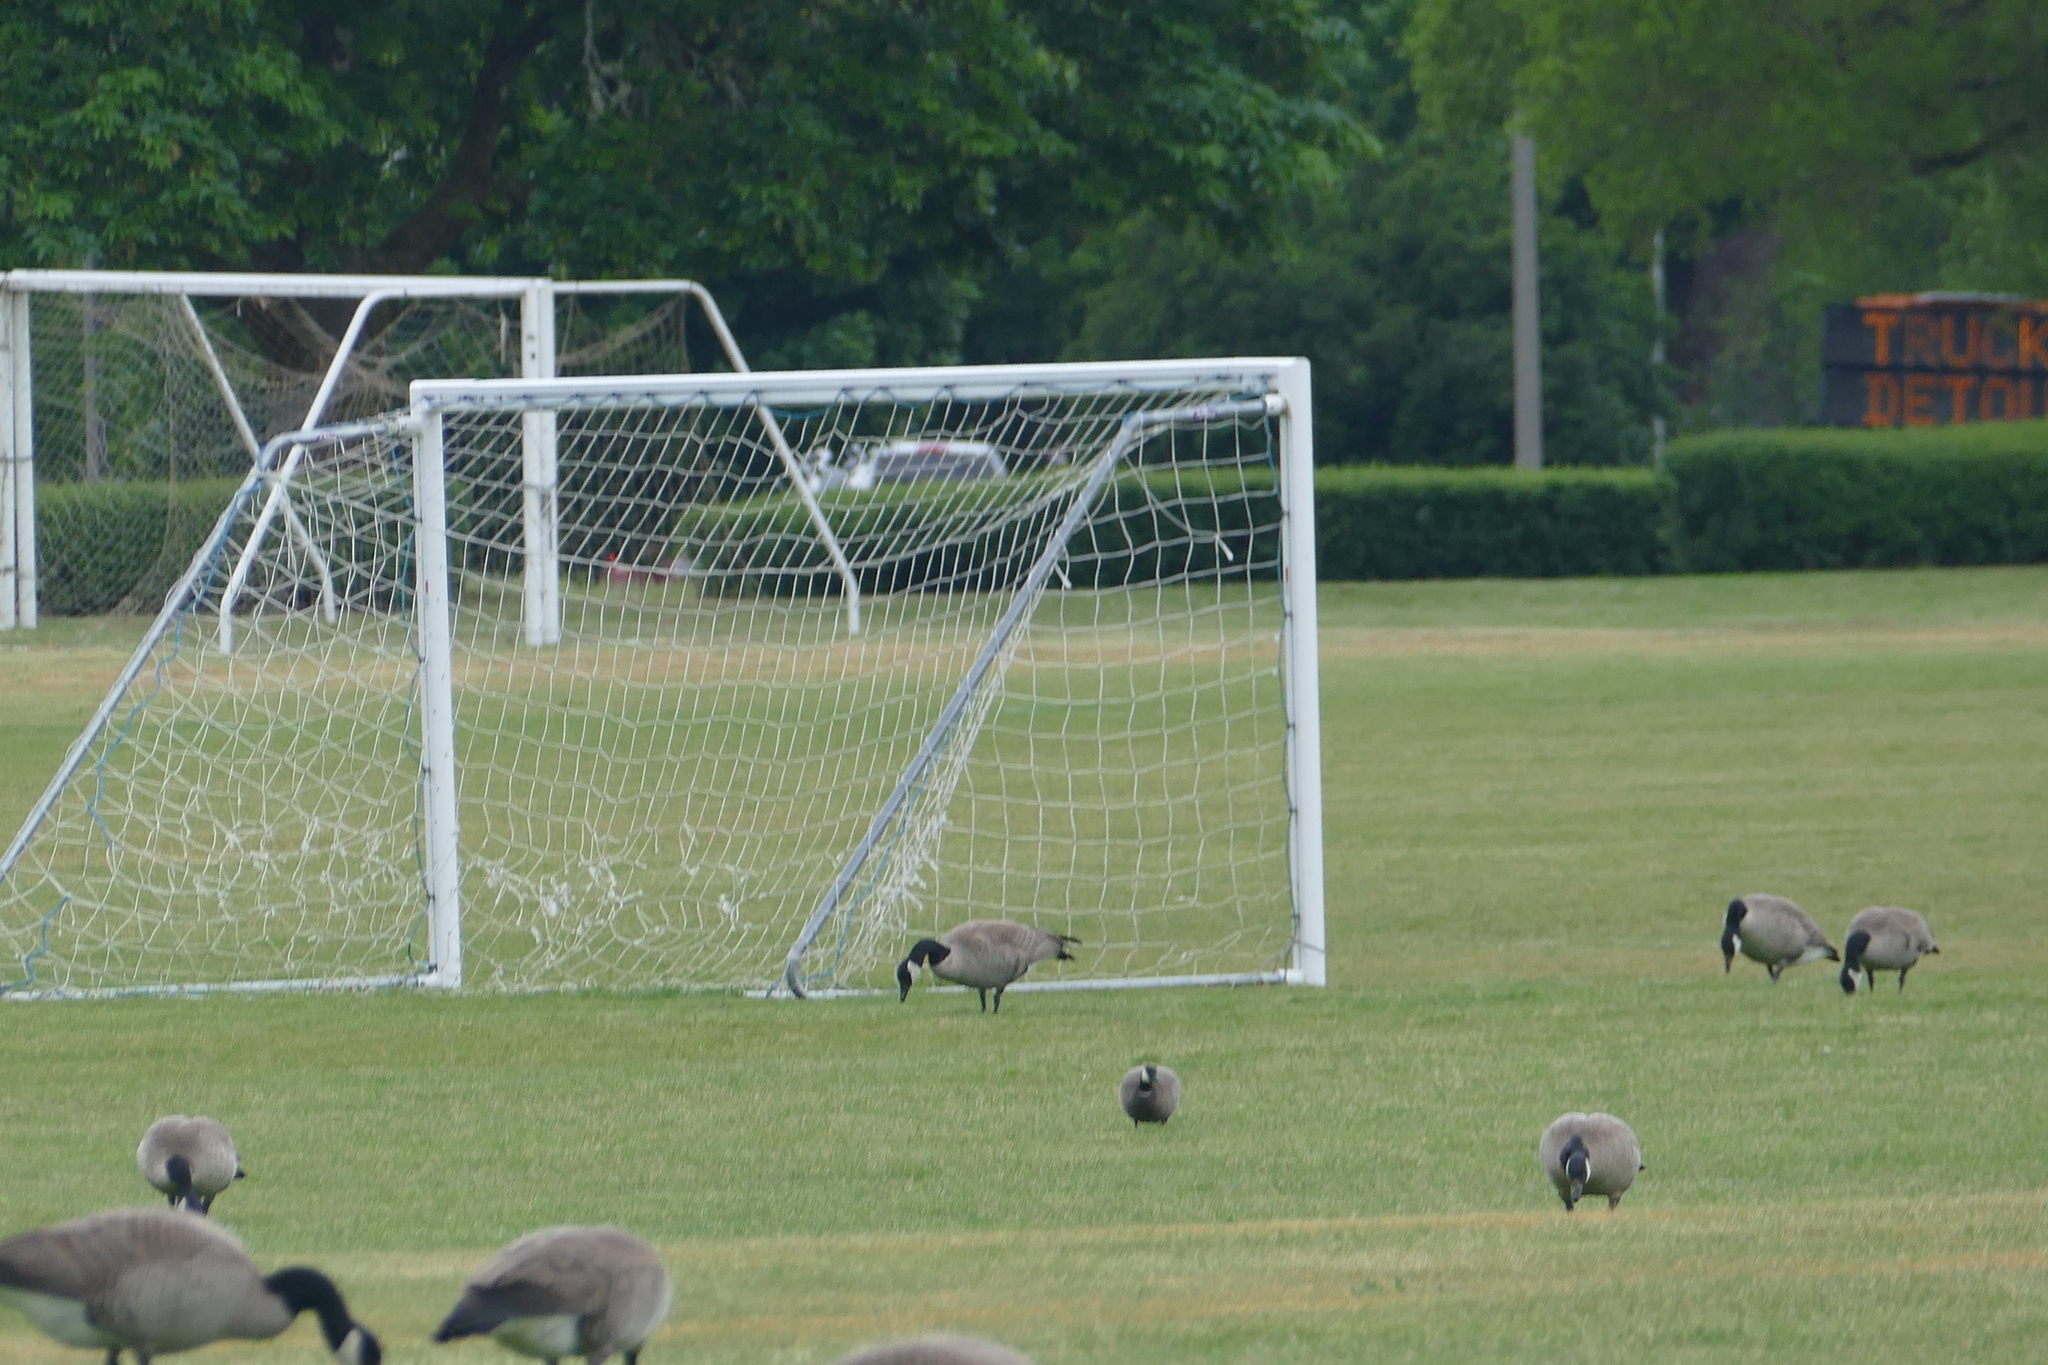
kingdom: Animalia
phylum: Chordata
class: Aves
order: Anseriformes
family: Anatidae
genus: Branta
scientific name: Branta hutchinsii
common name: Cackling goose
